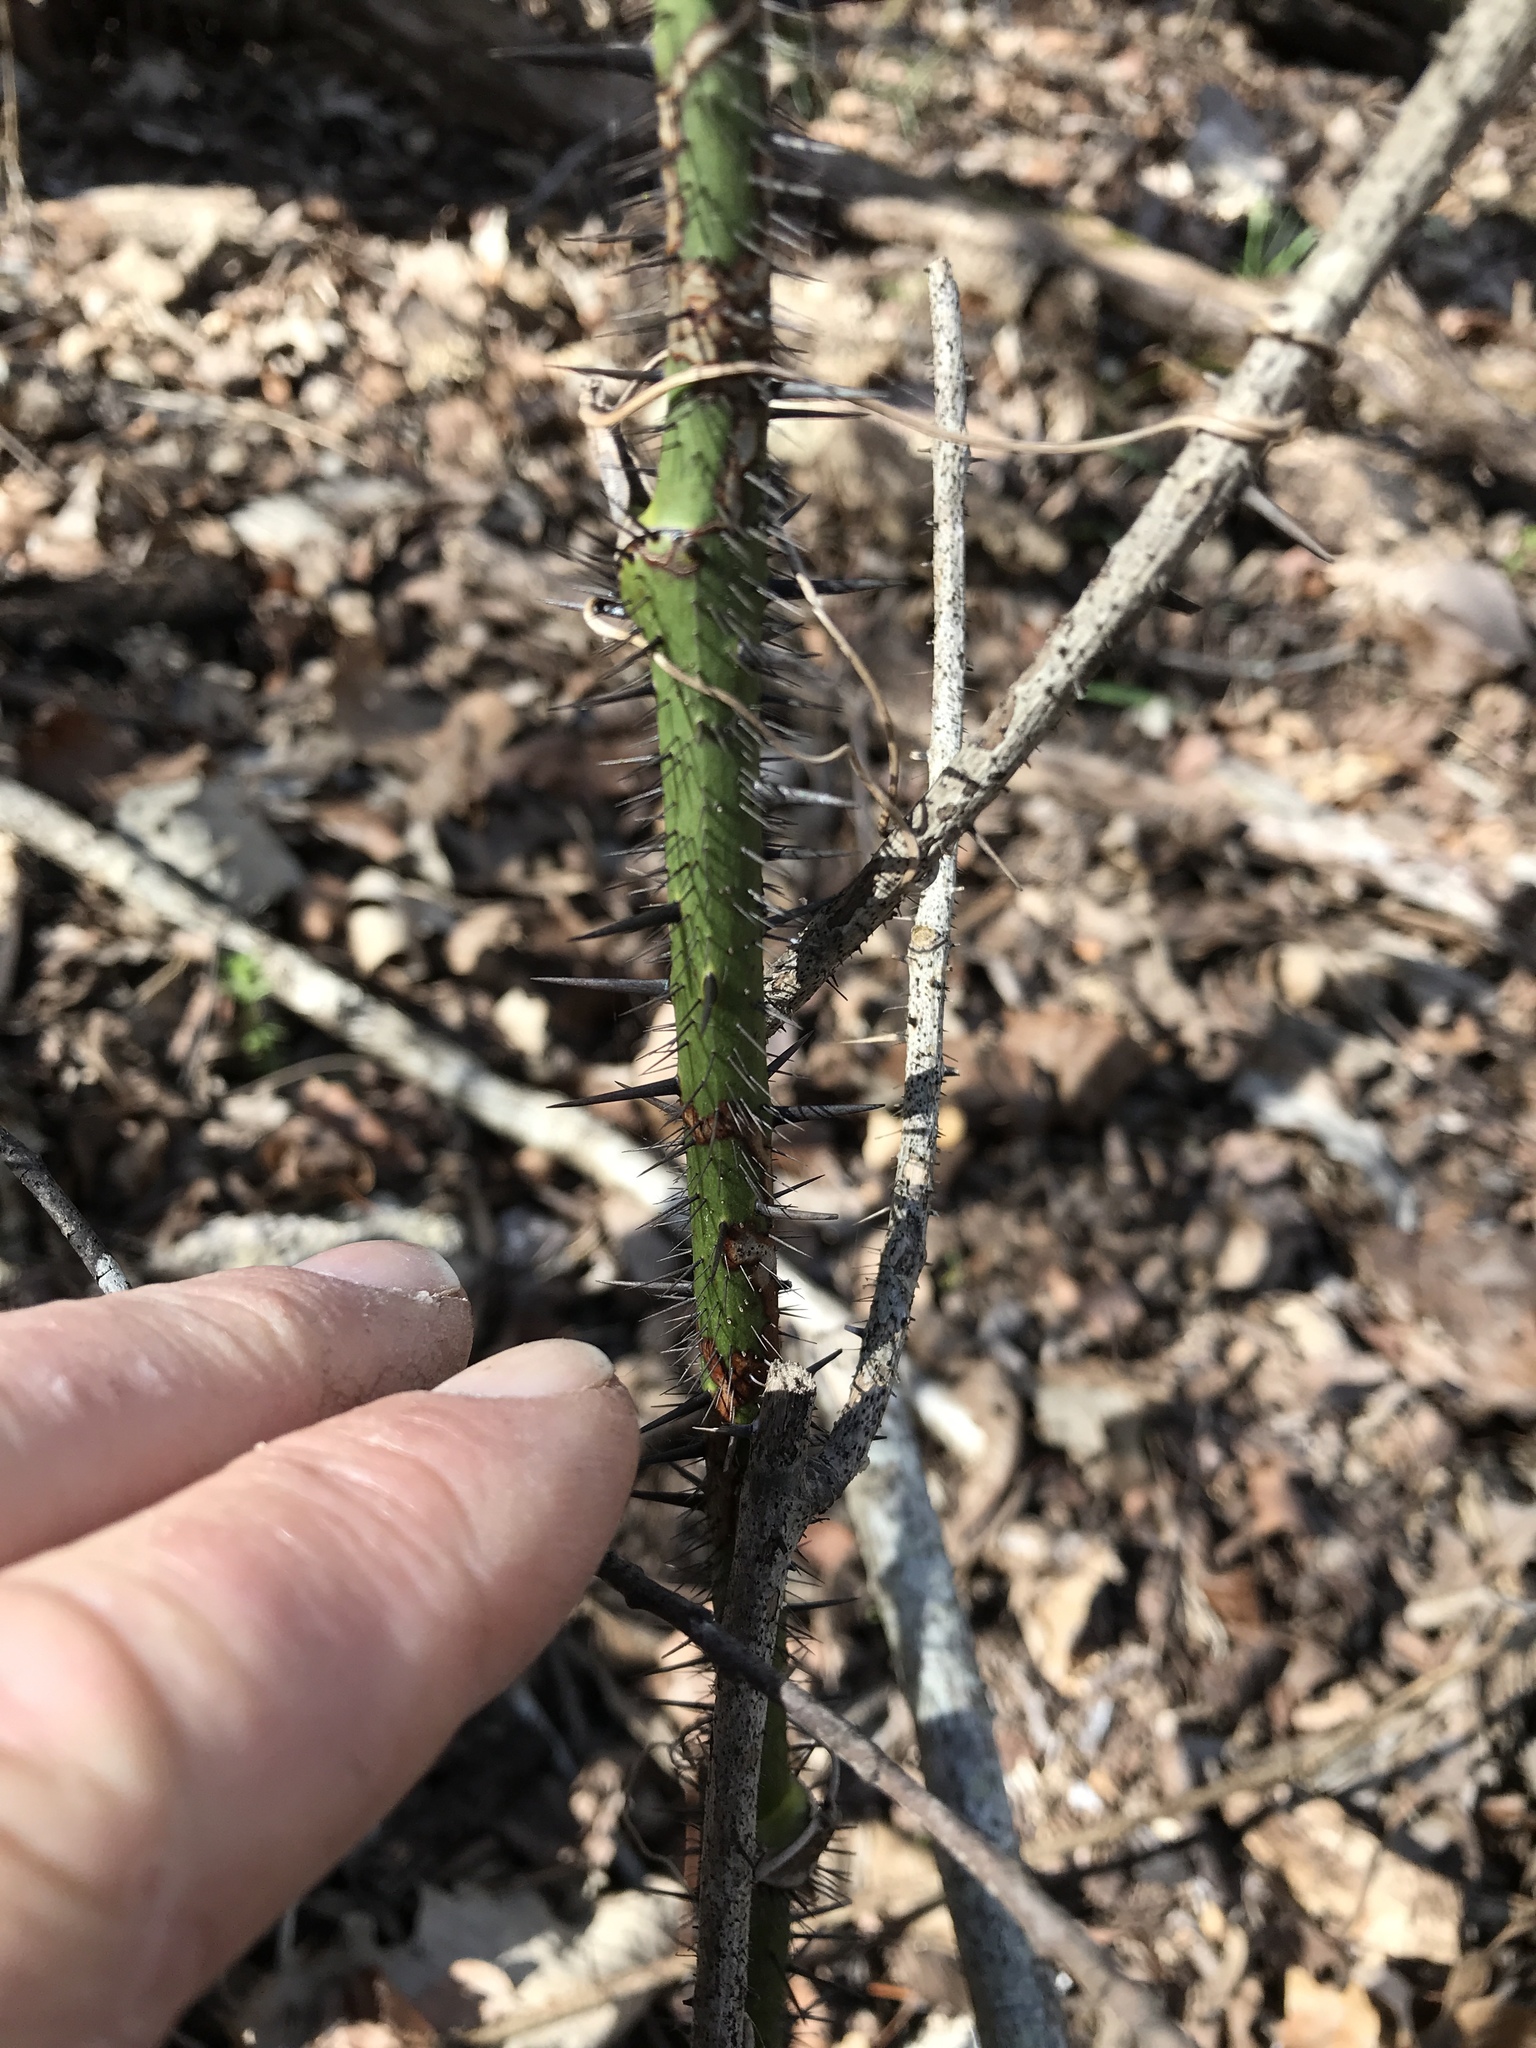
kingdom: Plantae
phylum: Tracheophyta
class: Liliopsida
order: Liliales
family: Smilacaceae
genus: Smilax
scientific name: Smilax tamnoides
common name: Hellfetter
